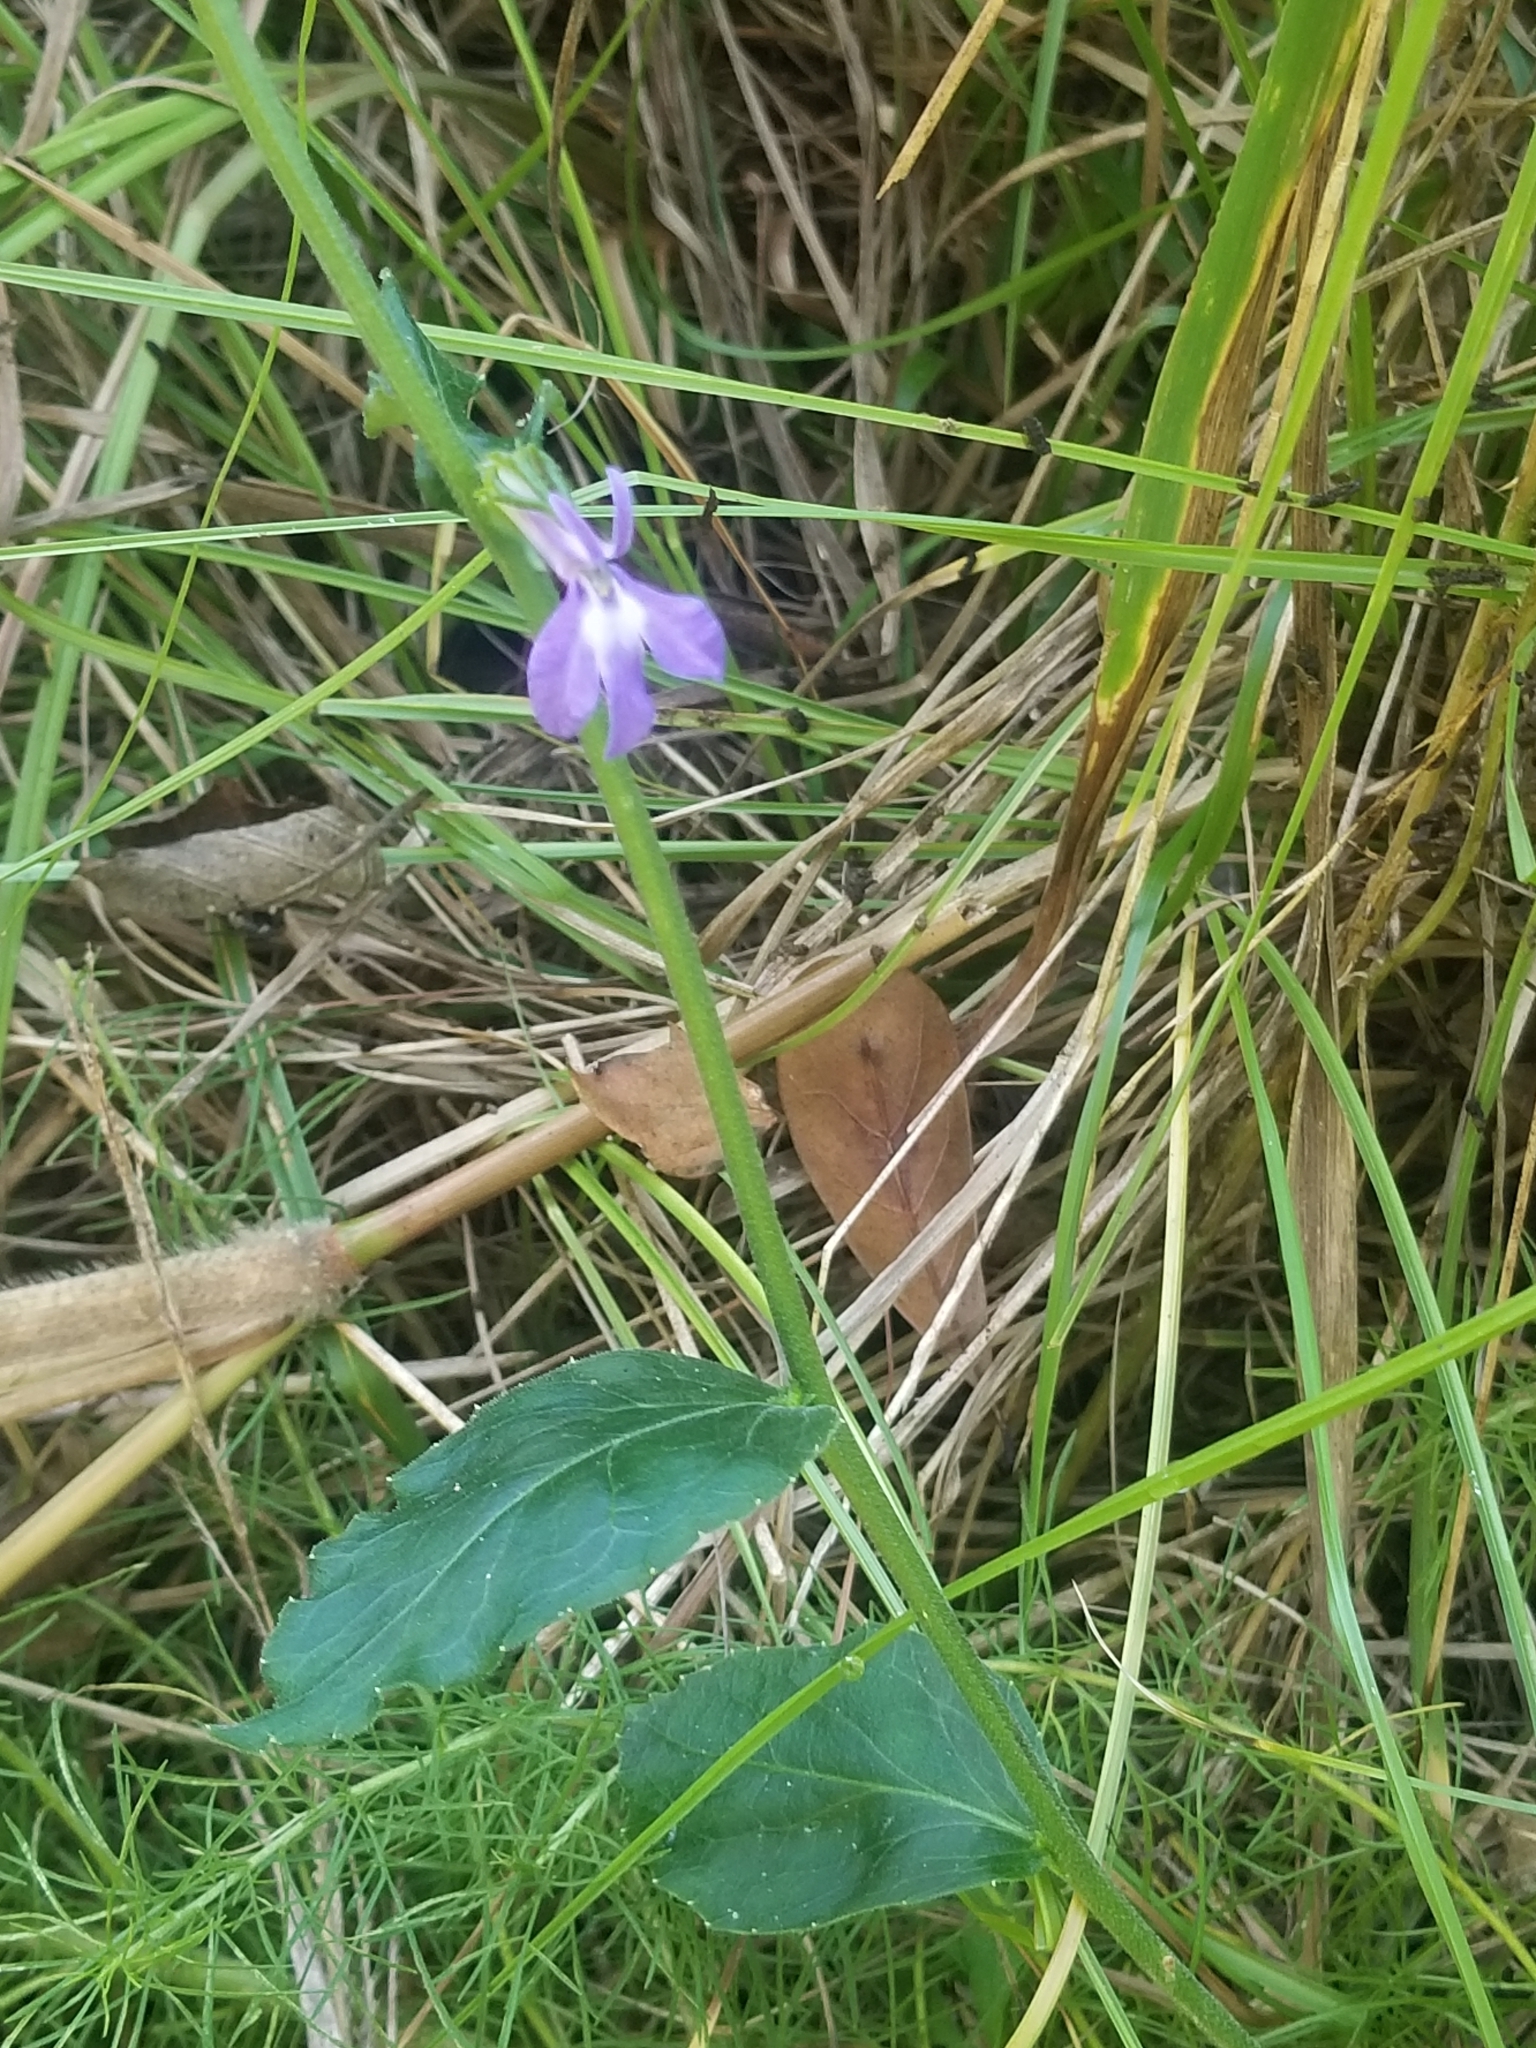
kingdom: Plantae
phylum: Tracheophyta
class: Magnoliopsida
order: Asterales
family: Campanulaceae
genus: Lobelia
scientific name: Lobelia puberula
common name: Purple dewdrop
